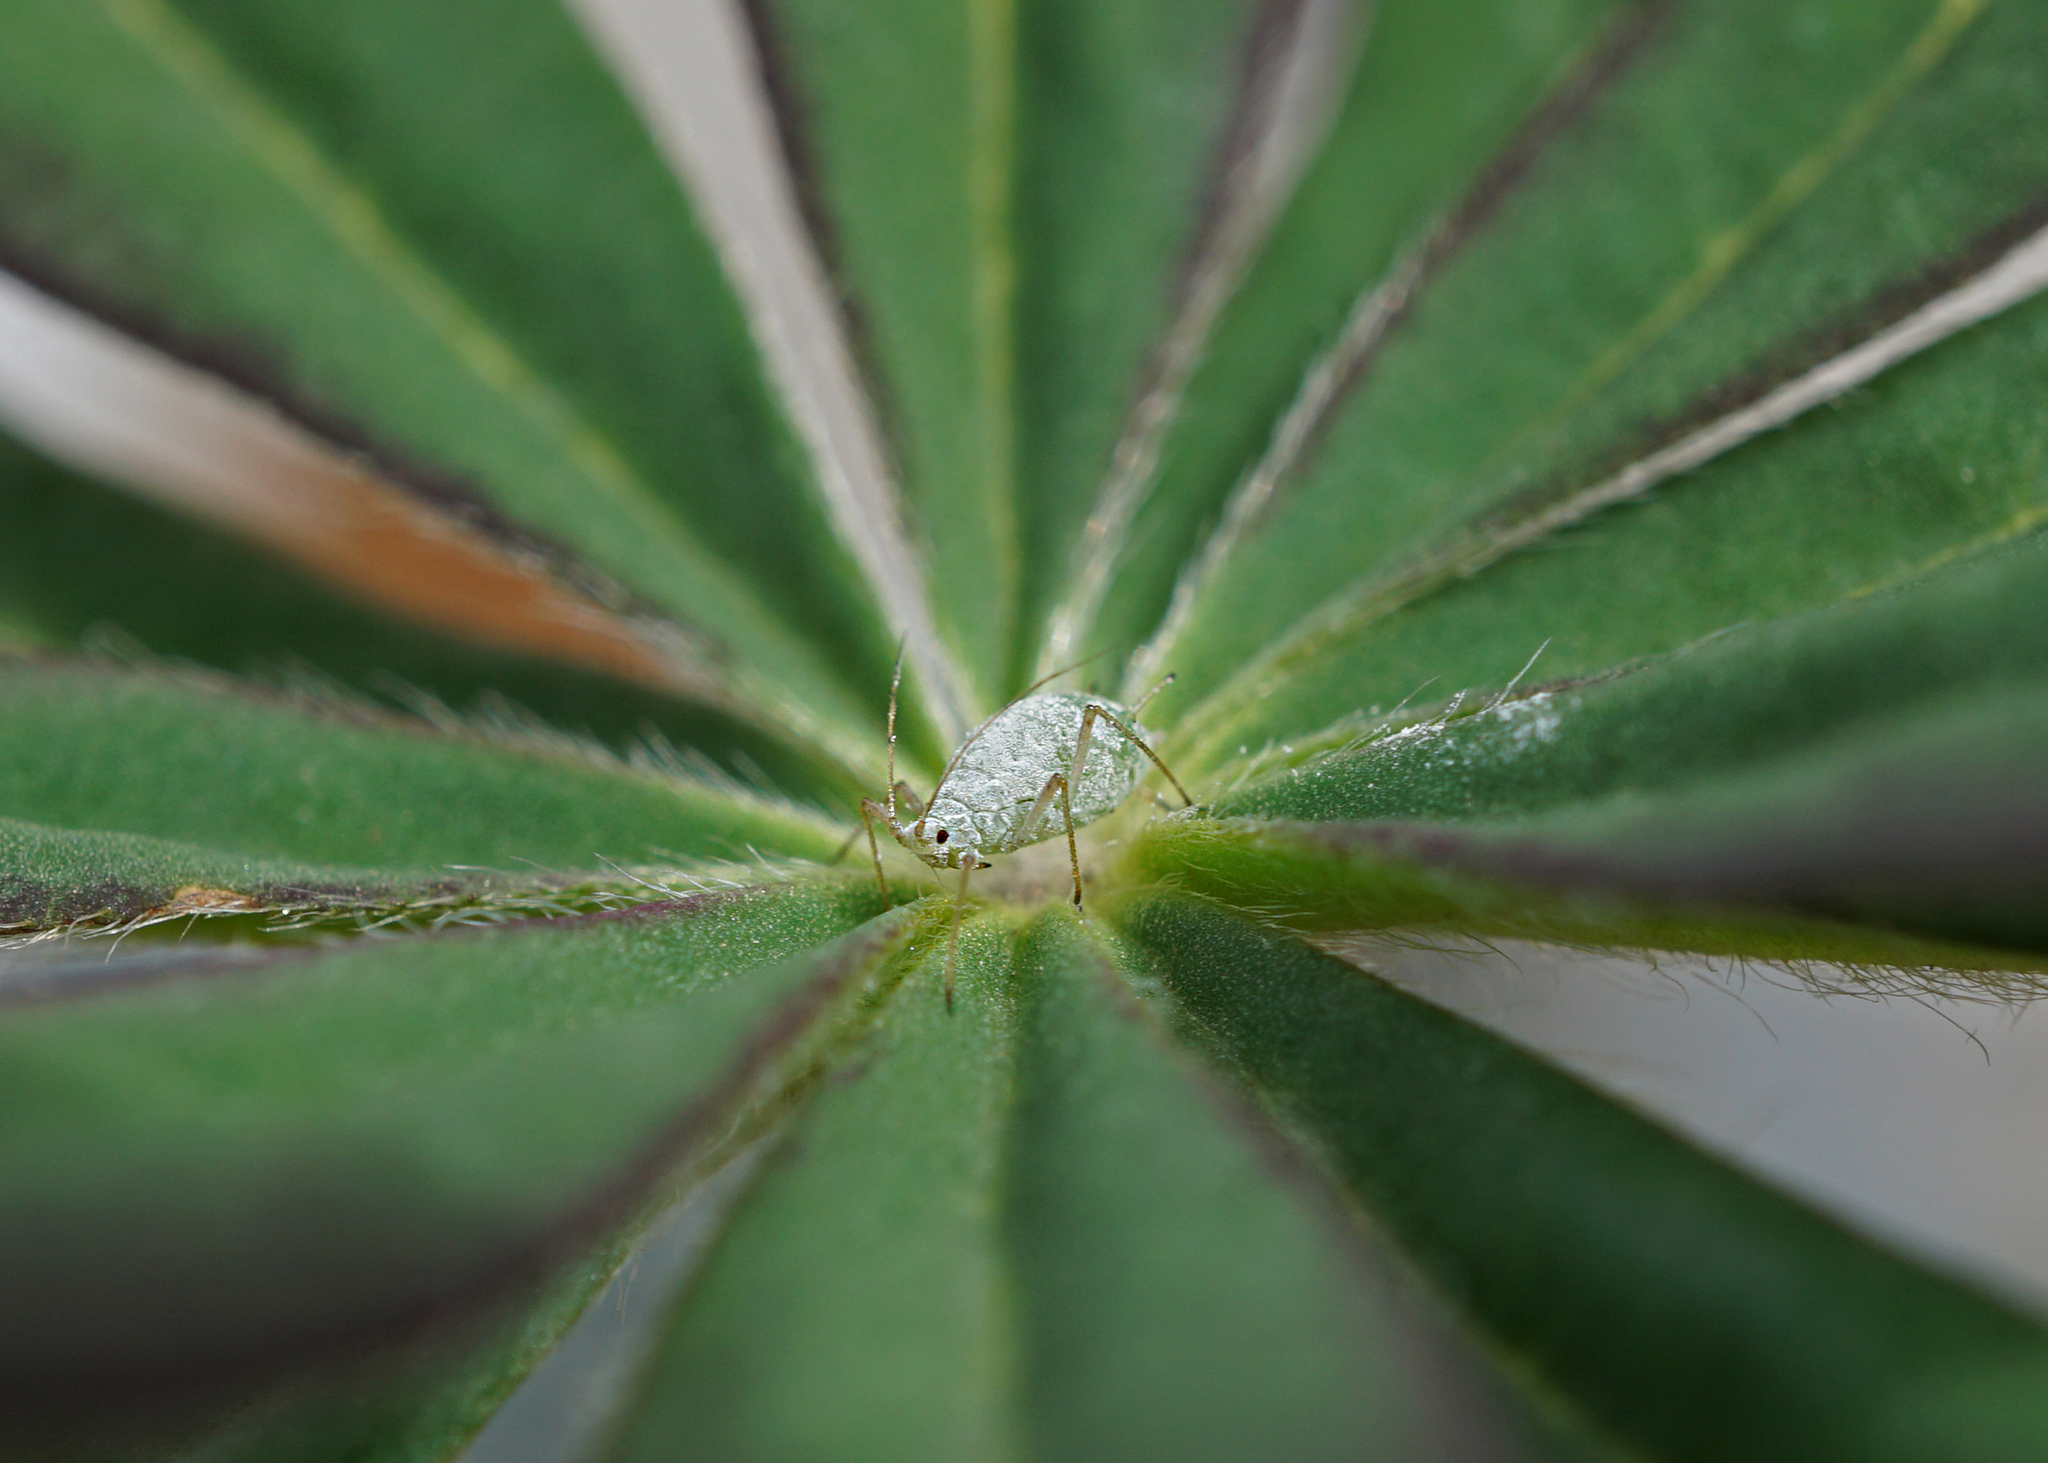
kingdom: Animalia
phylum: Arthropoda
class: Insecta
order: Hemiptera
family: Aphididae
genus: Macrosiphum
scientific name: Macrosiphum albifrons
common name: Lupine aphid
